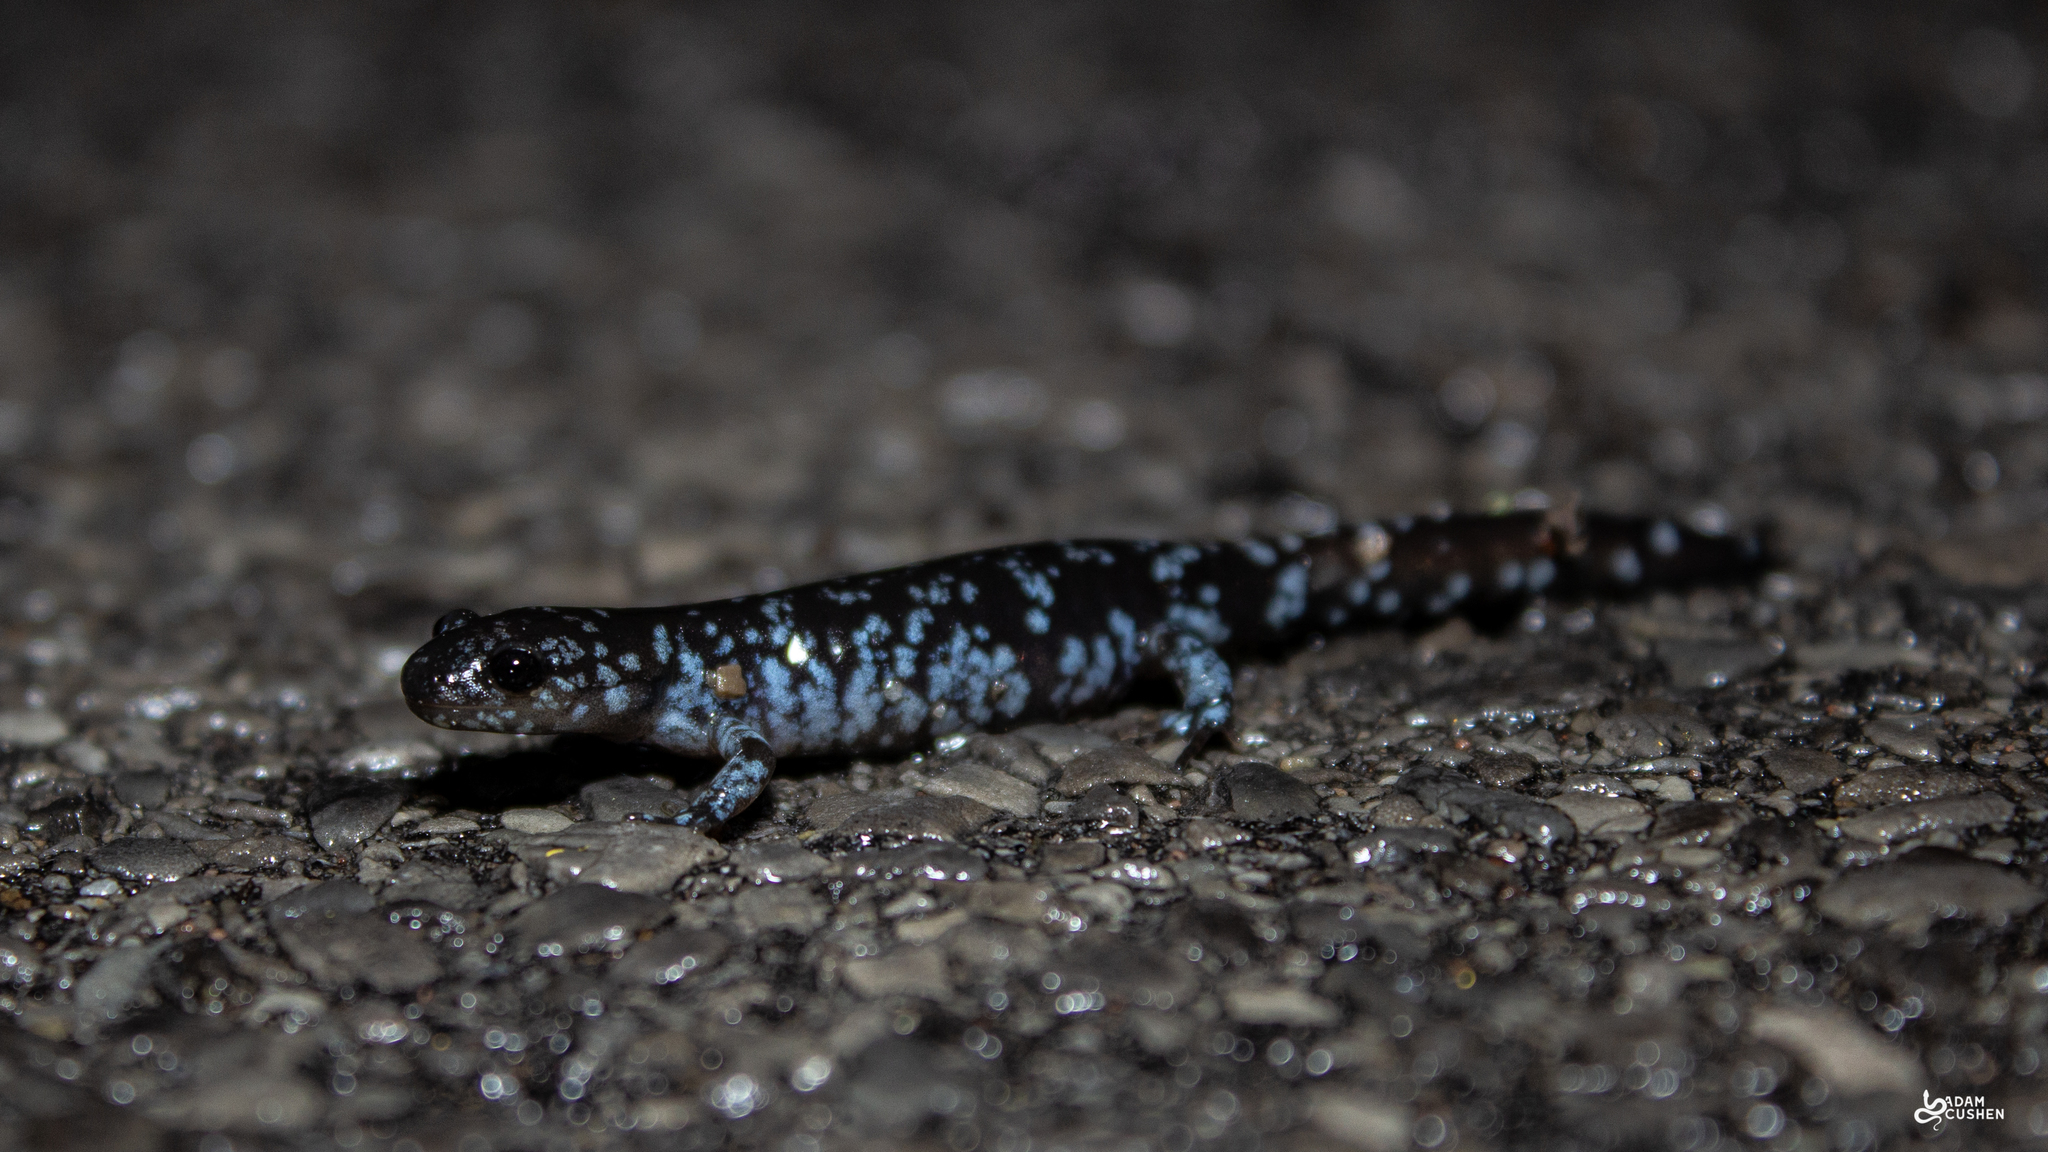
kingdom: Animalia
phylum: Chordata
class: Amphibia
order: Caudata
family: Ambystomatidae
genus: Ambystoma
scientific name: Ambystoma laterale
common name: Blue-spotted salamander
